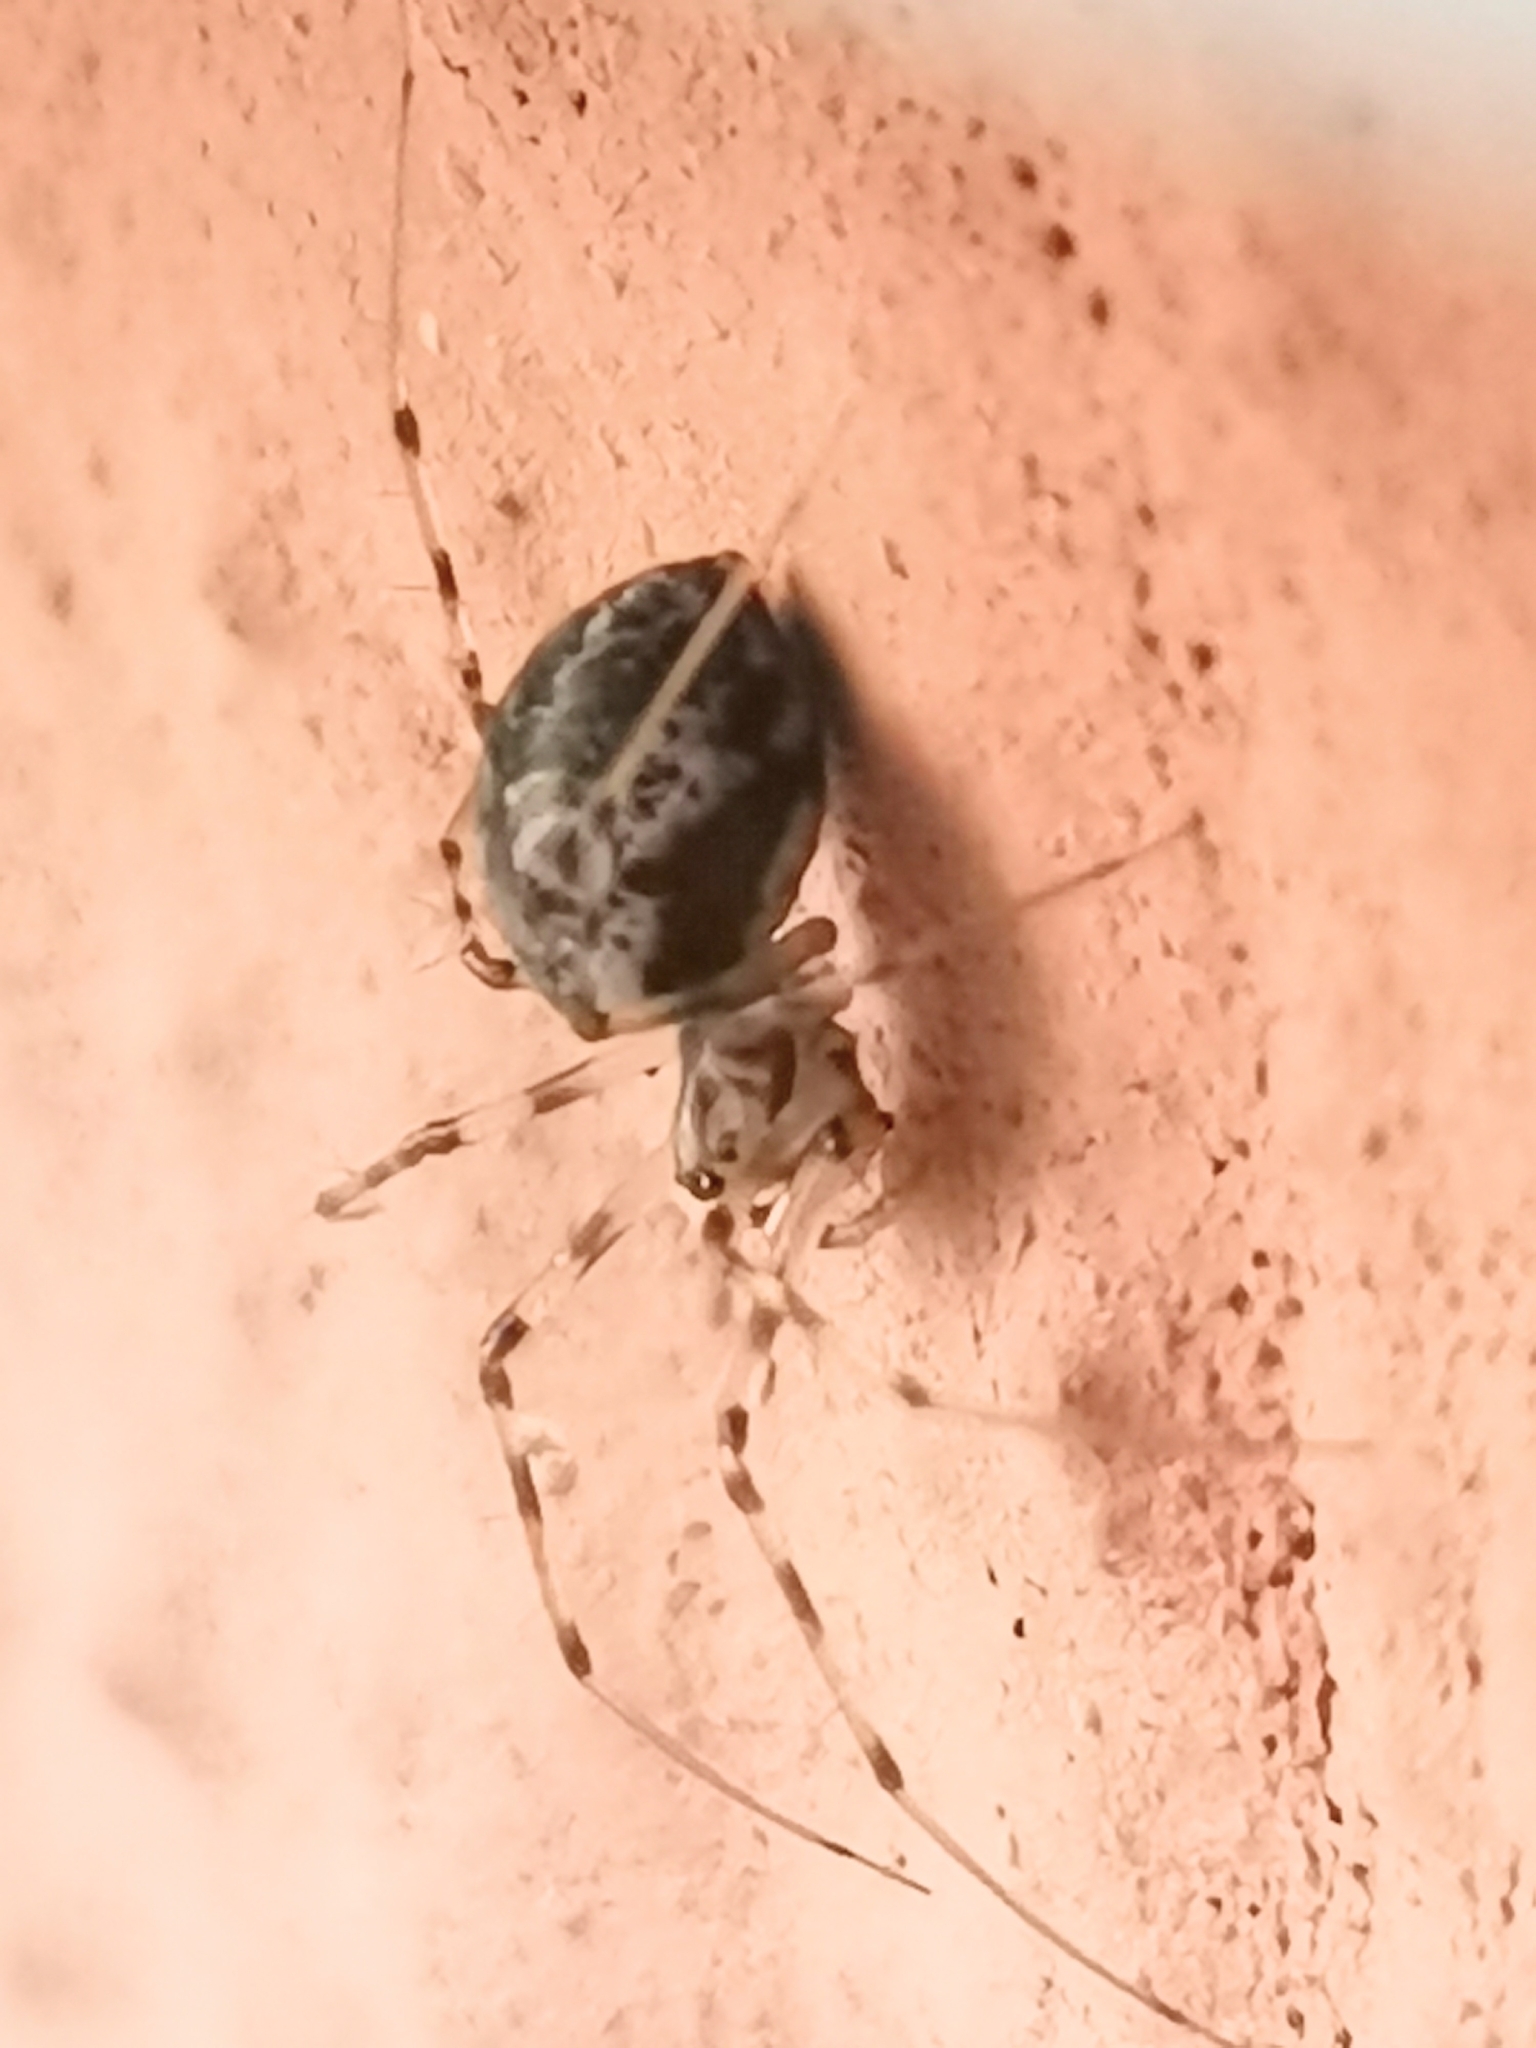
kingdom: Animalia
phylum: Arthropoda
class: Arachnida
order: Araneae
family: Linyphiidae
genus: Drapetisca
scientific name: Drapetisca socialis
